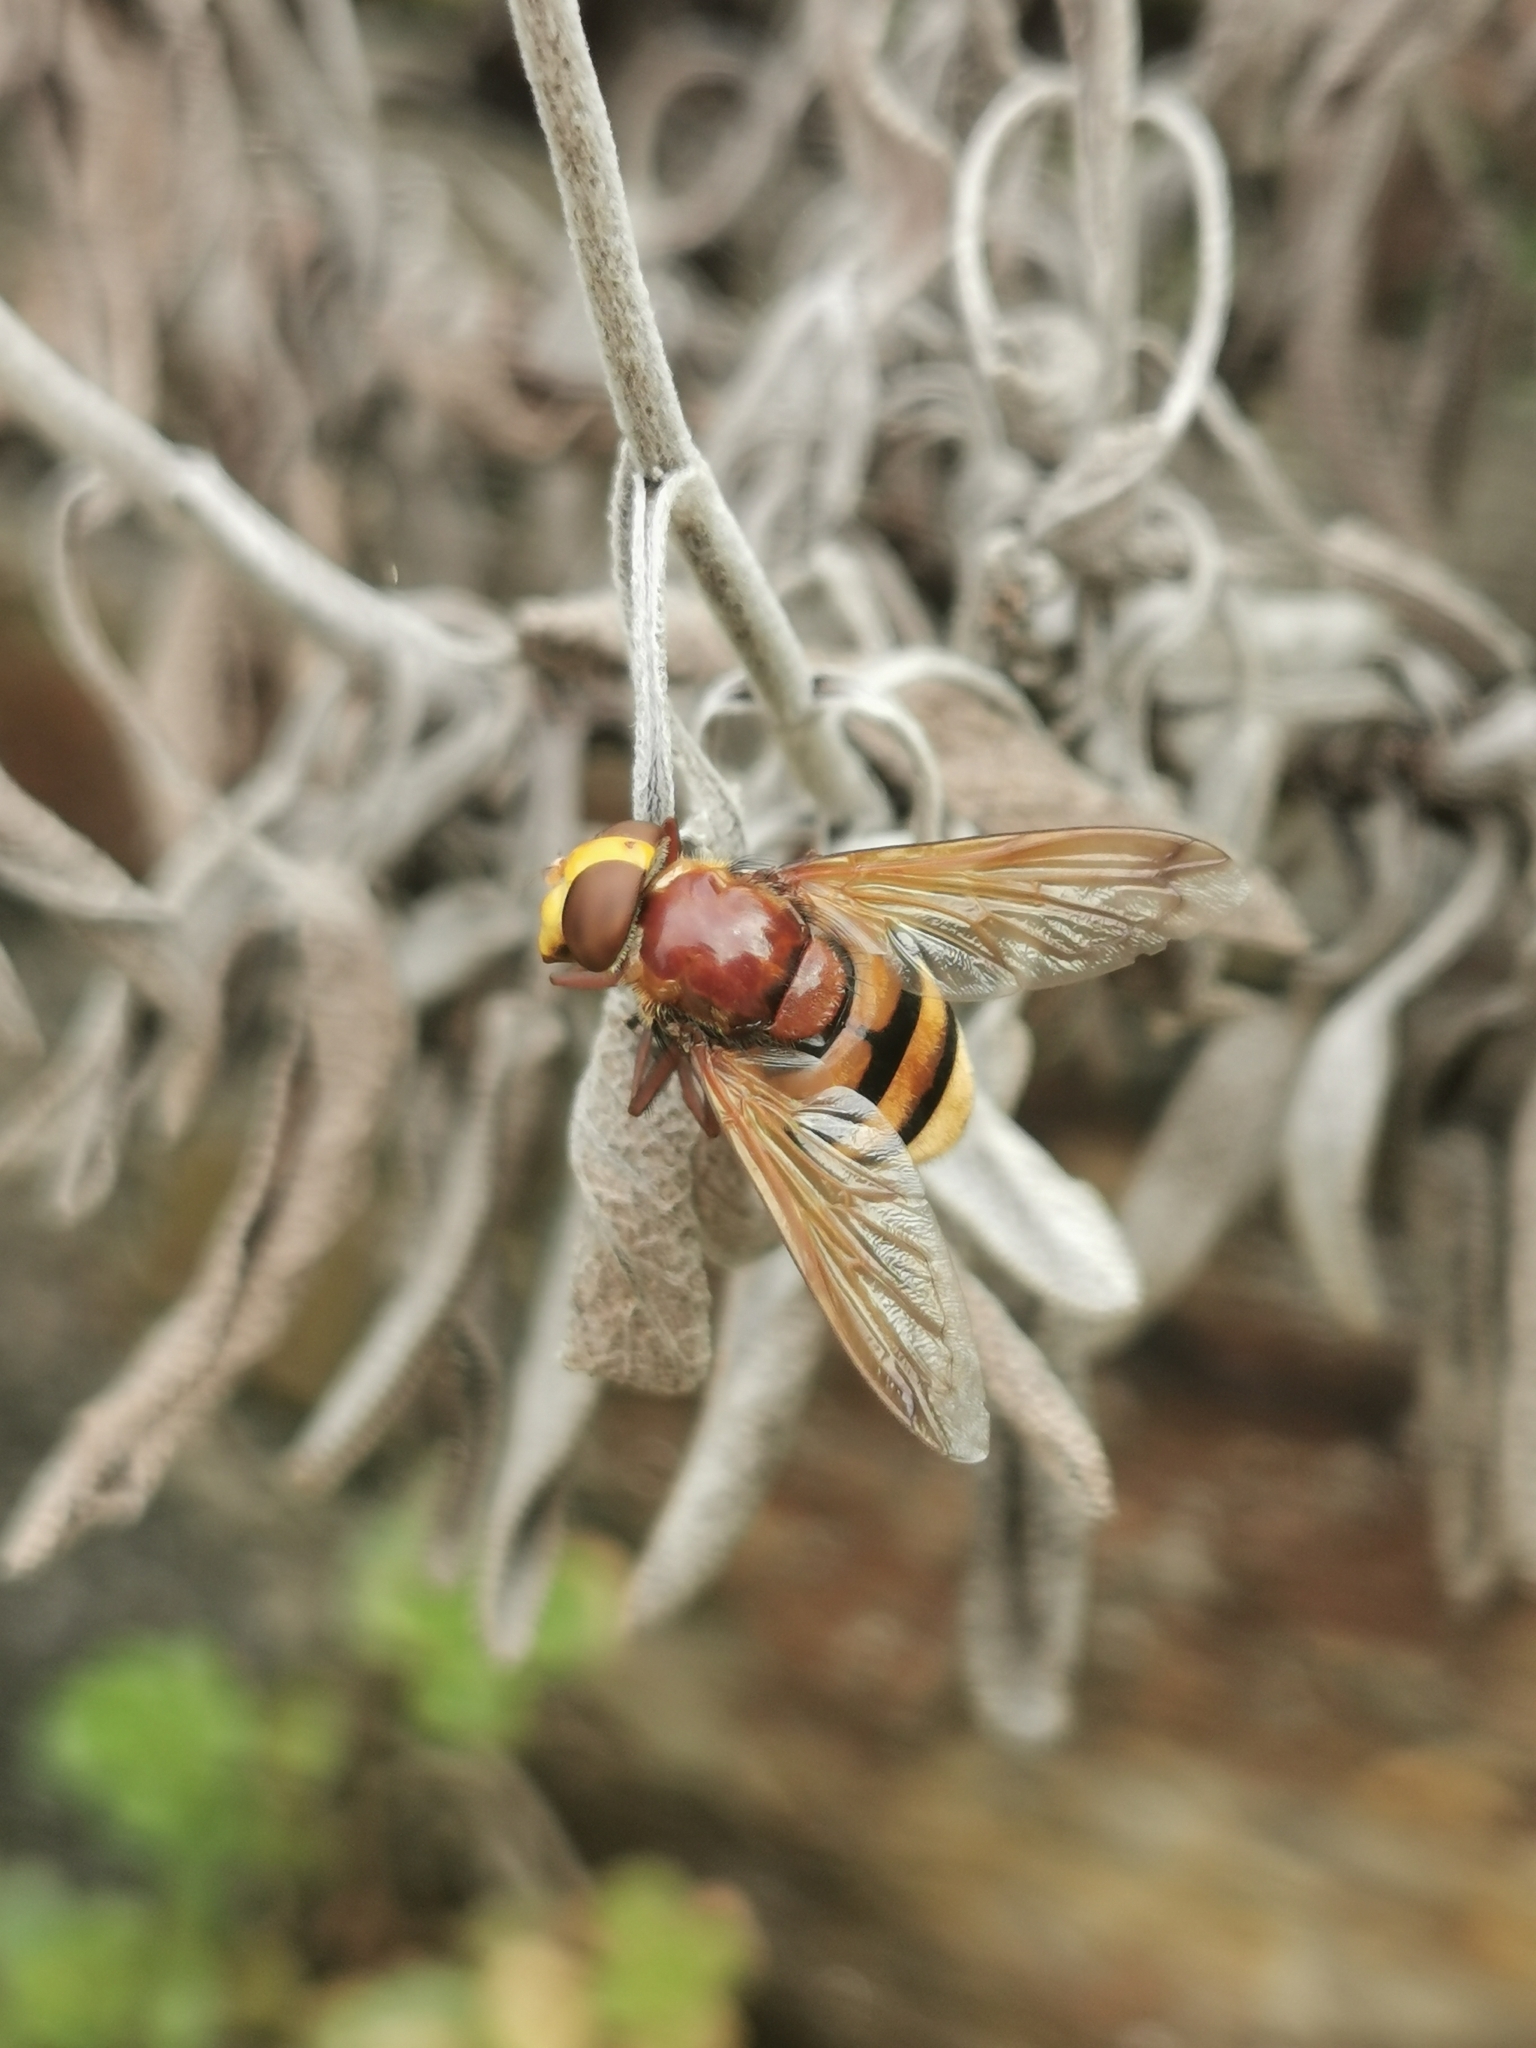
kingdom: Animalia
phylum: Arthropoda
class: Insecta
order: Diptera
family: Syrphidae
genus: Volucella
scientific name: Volucella zonaria
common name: Hornet hoverfly
